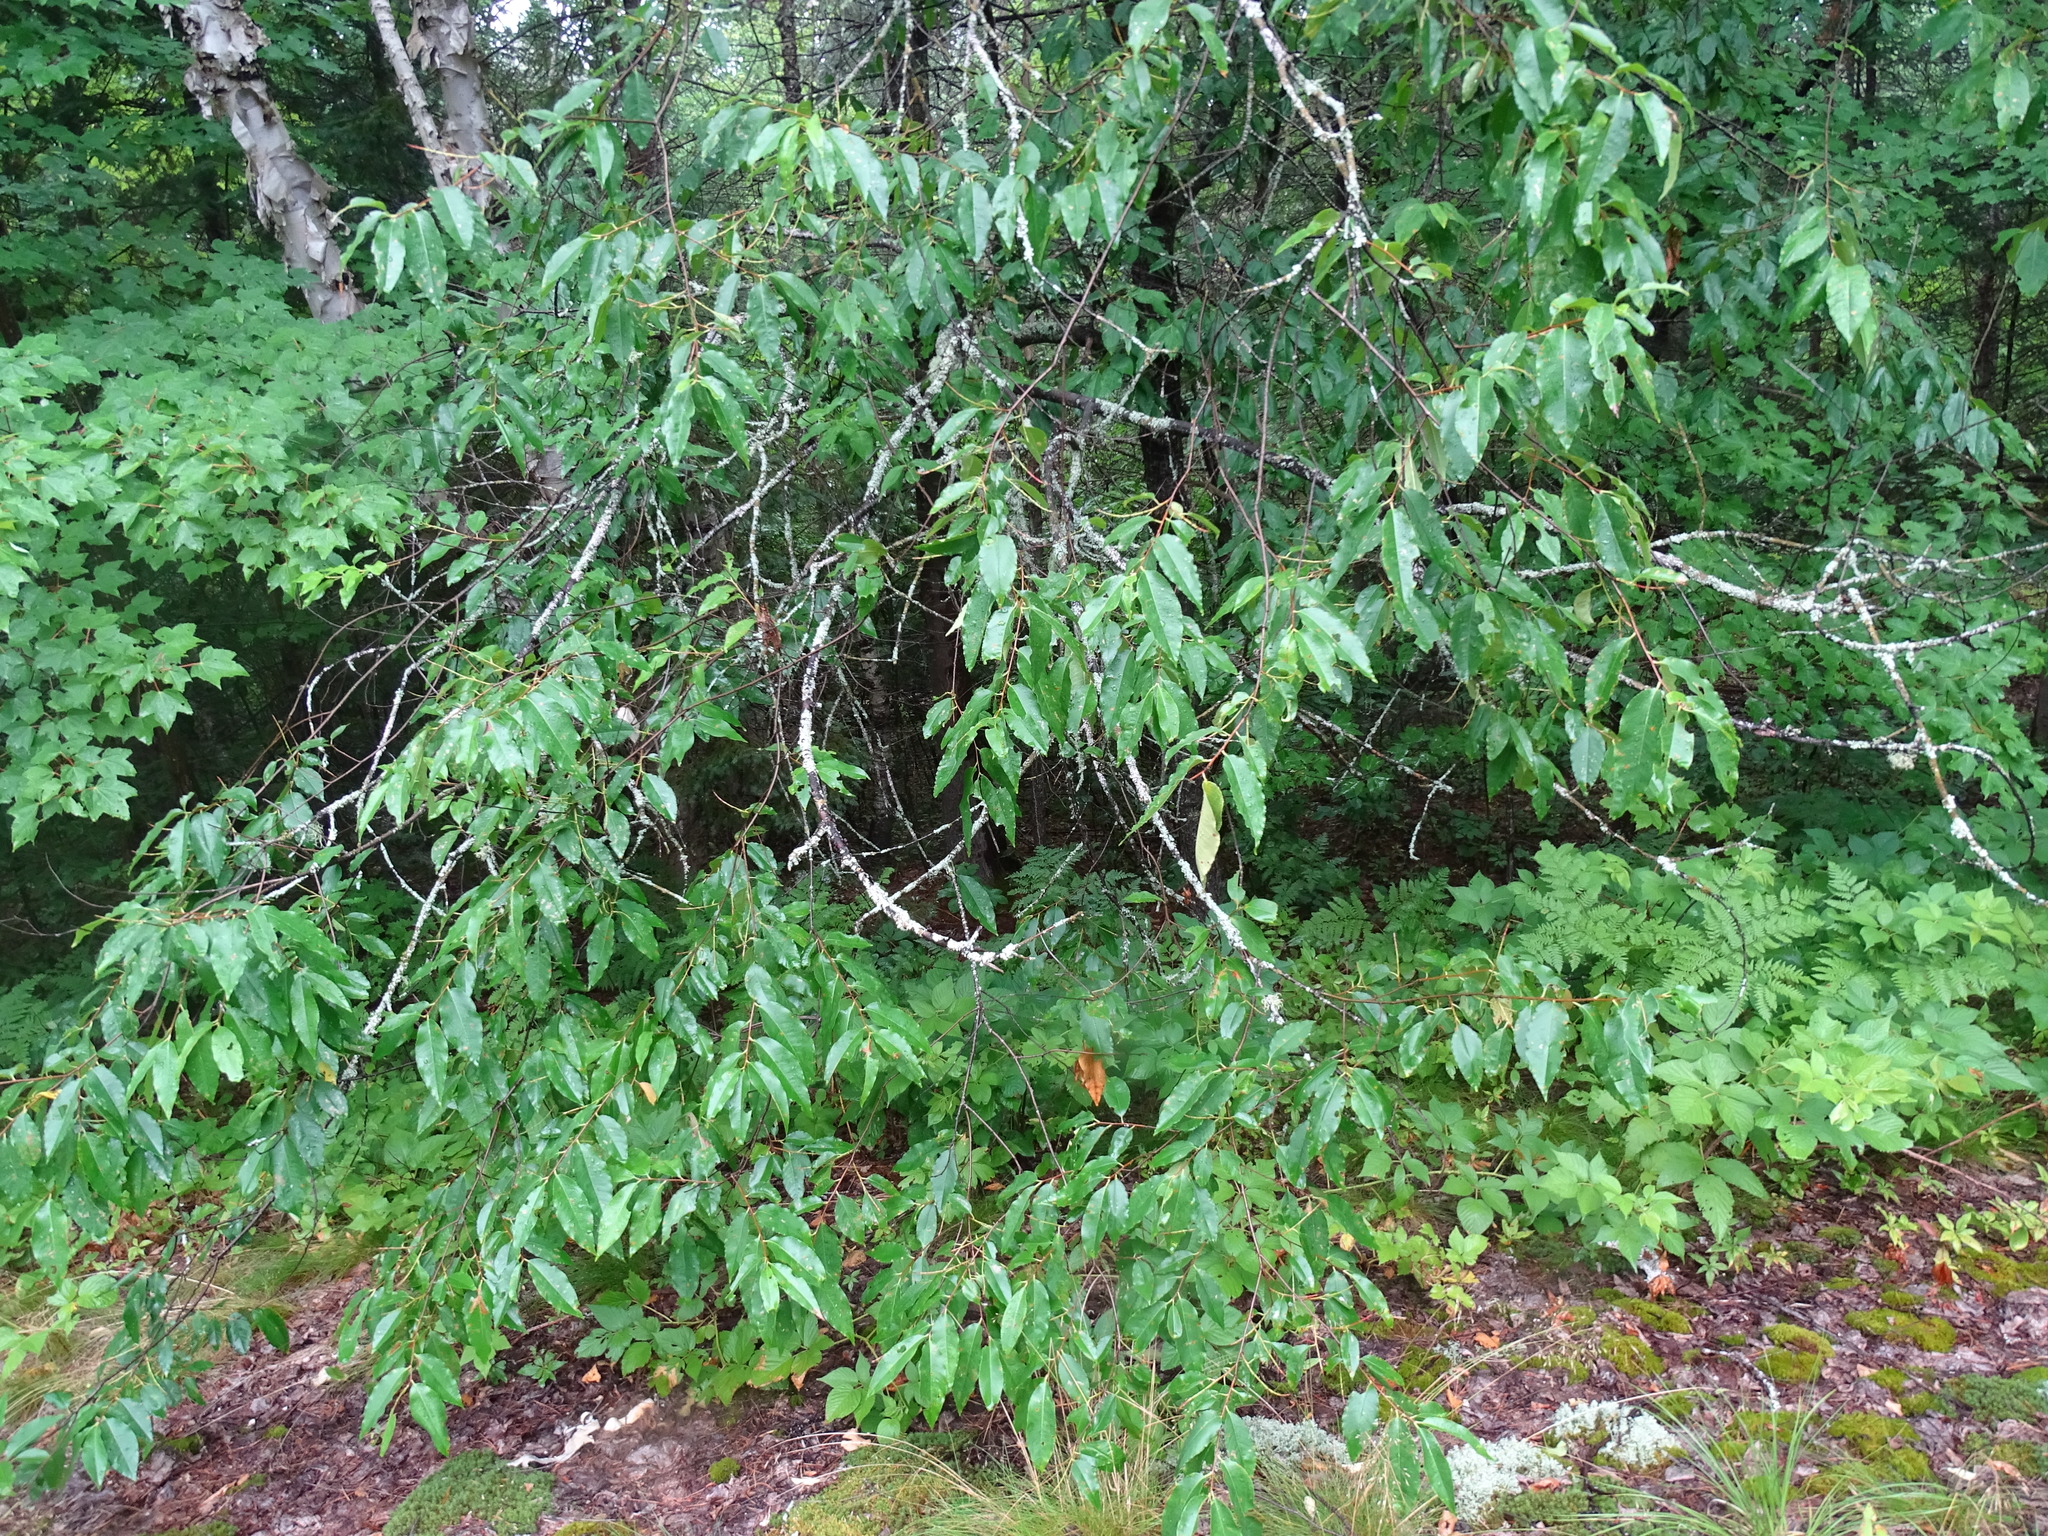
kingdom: Plantae
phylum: Tracheophyta
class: Magnoliopsida
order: Rosales
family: Rosaceae
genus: Prunus
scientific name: Prunus serotina
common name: Black cherry
